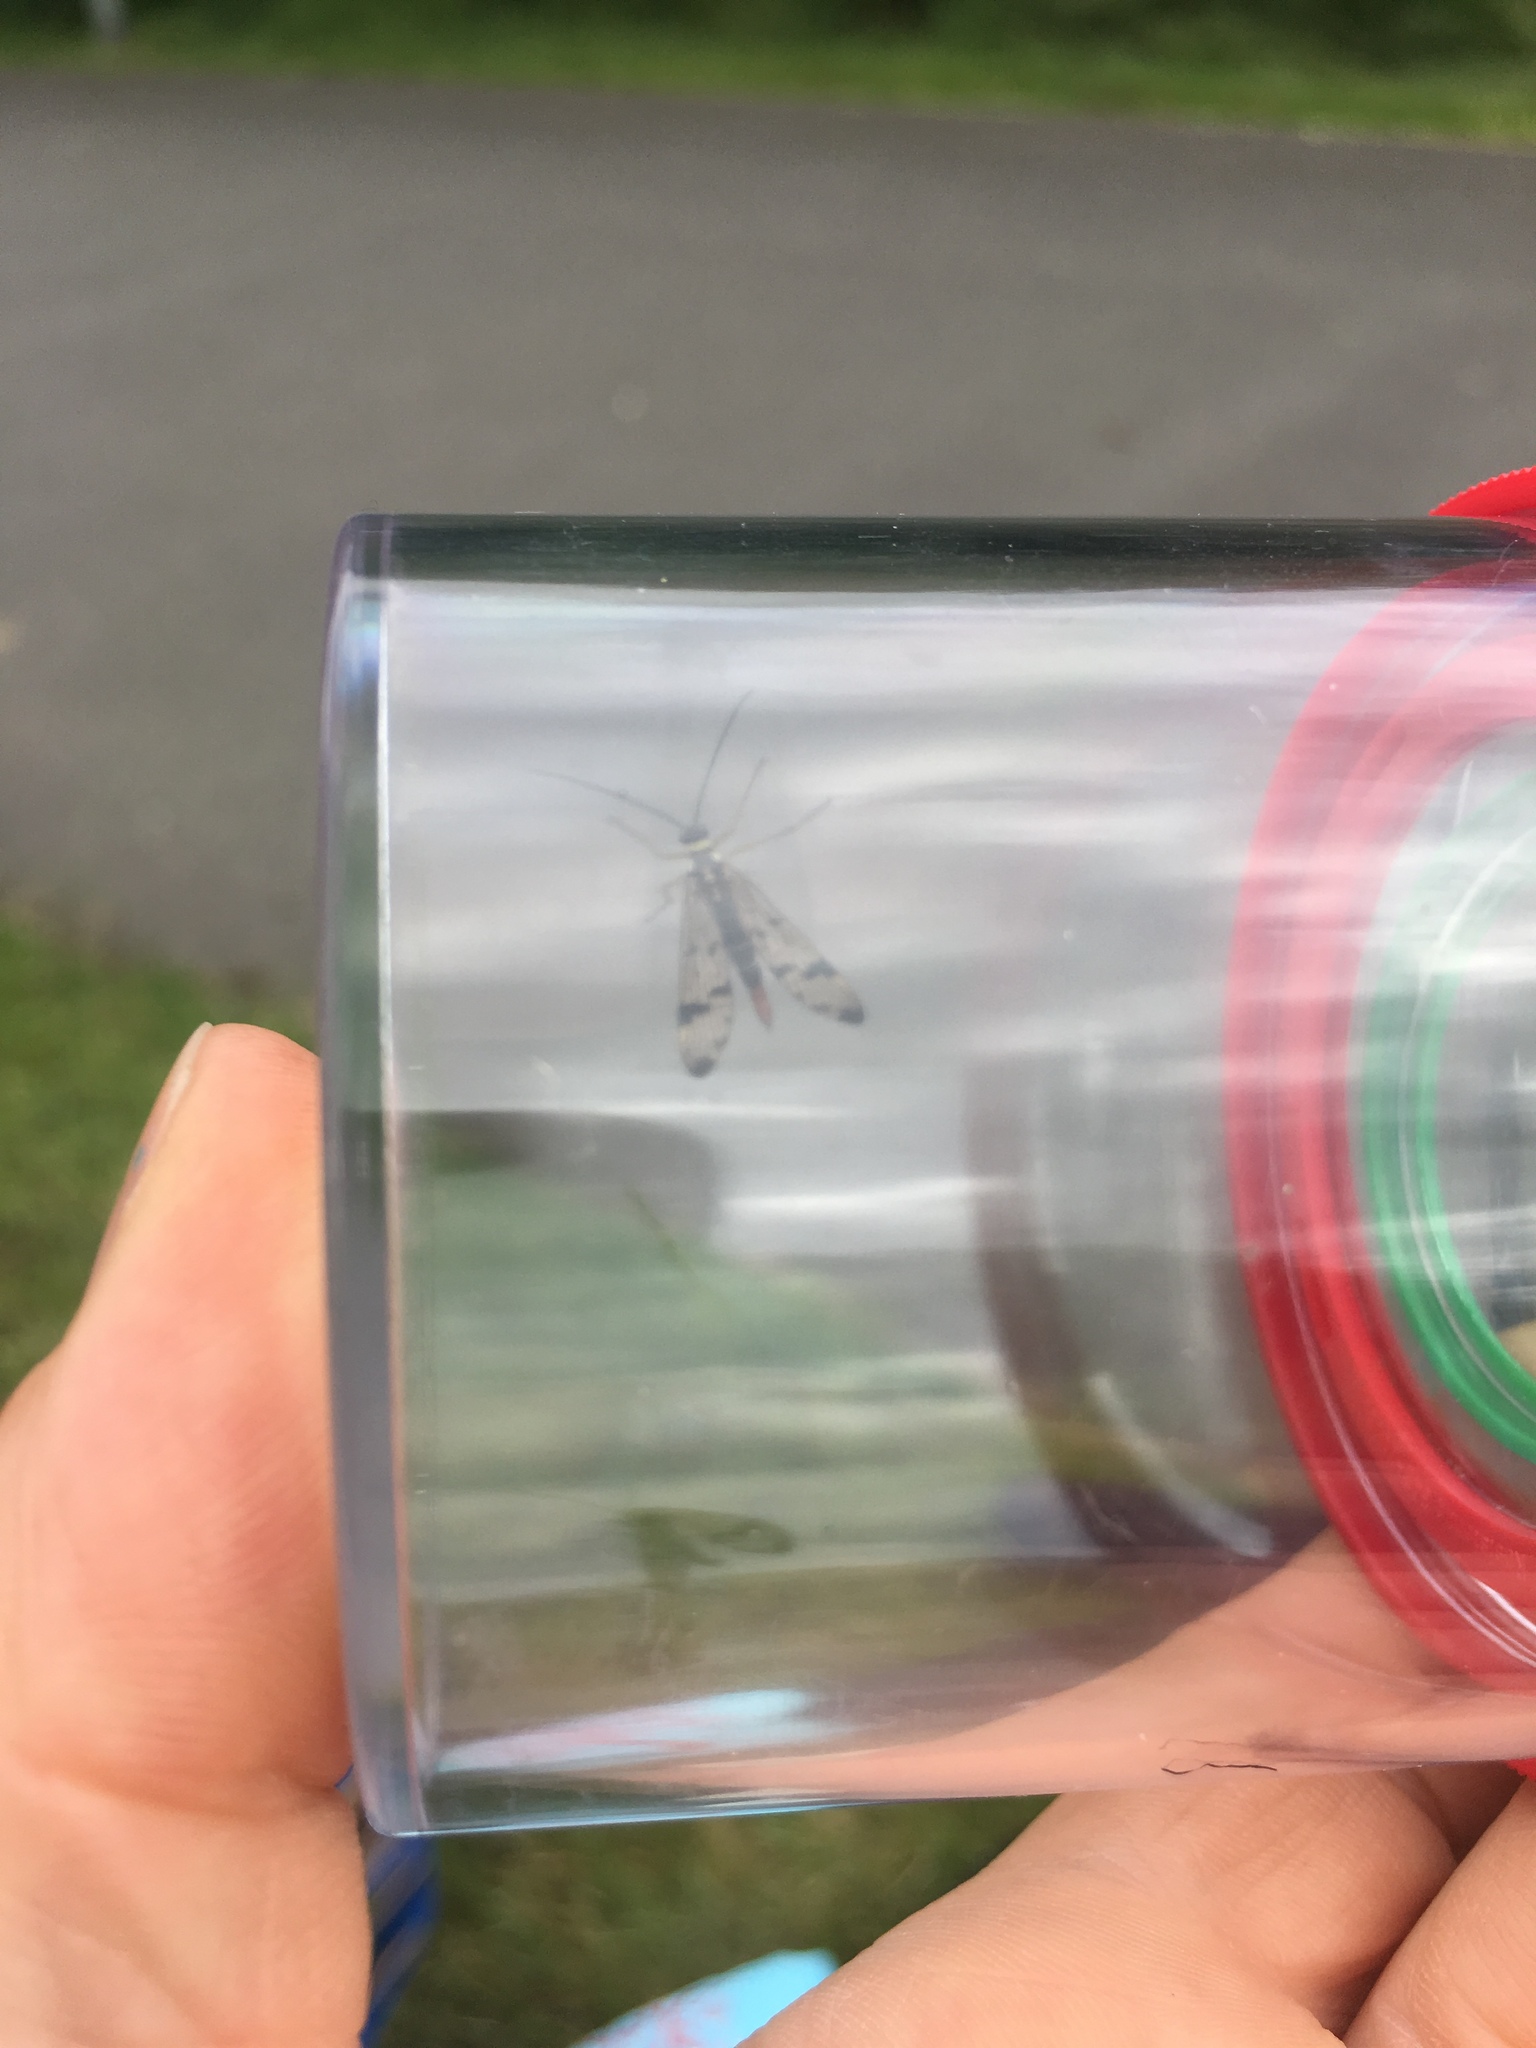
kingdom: Animalia
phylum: Arthropoda
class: Insecta
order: Mecoptera
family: Panorpidae
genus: Panorpa
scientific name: Panorpa communis
